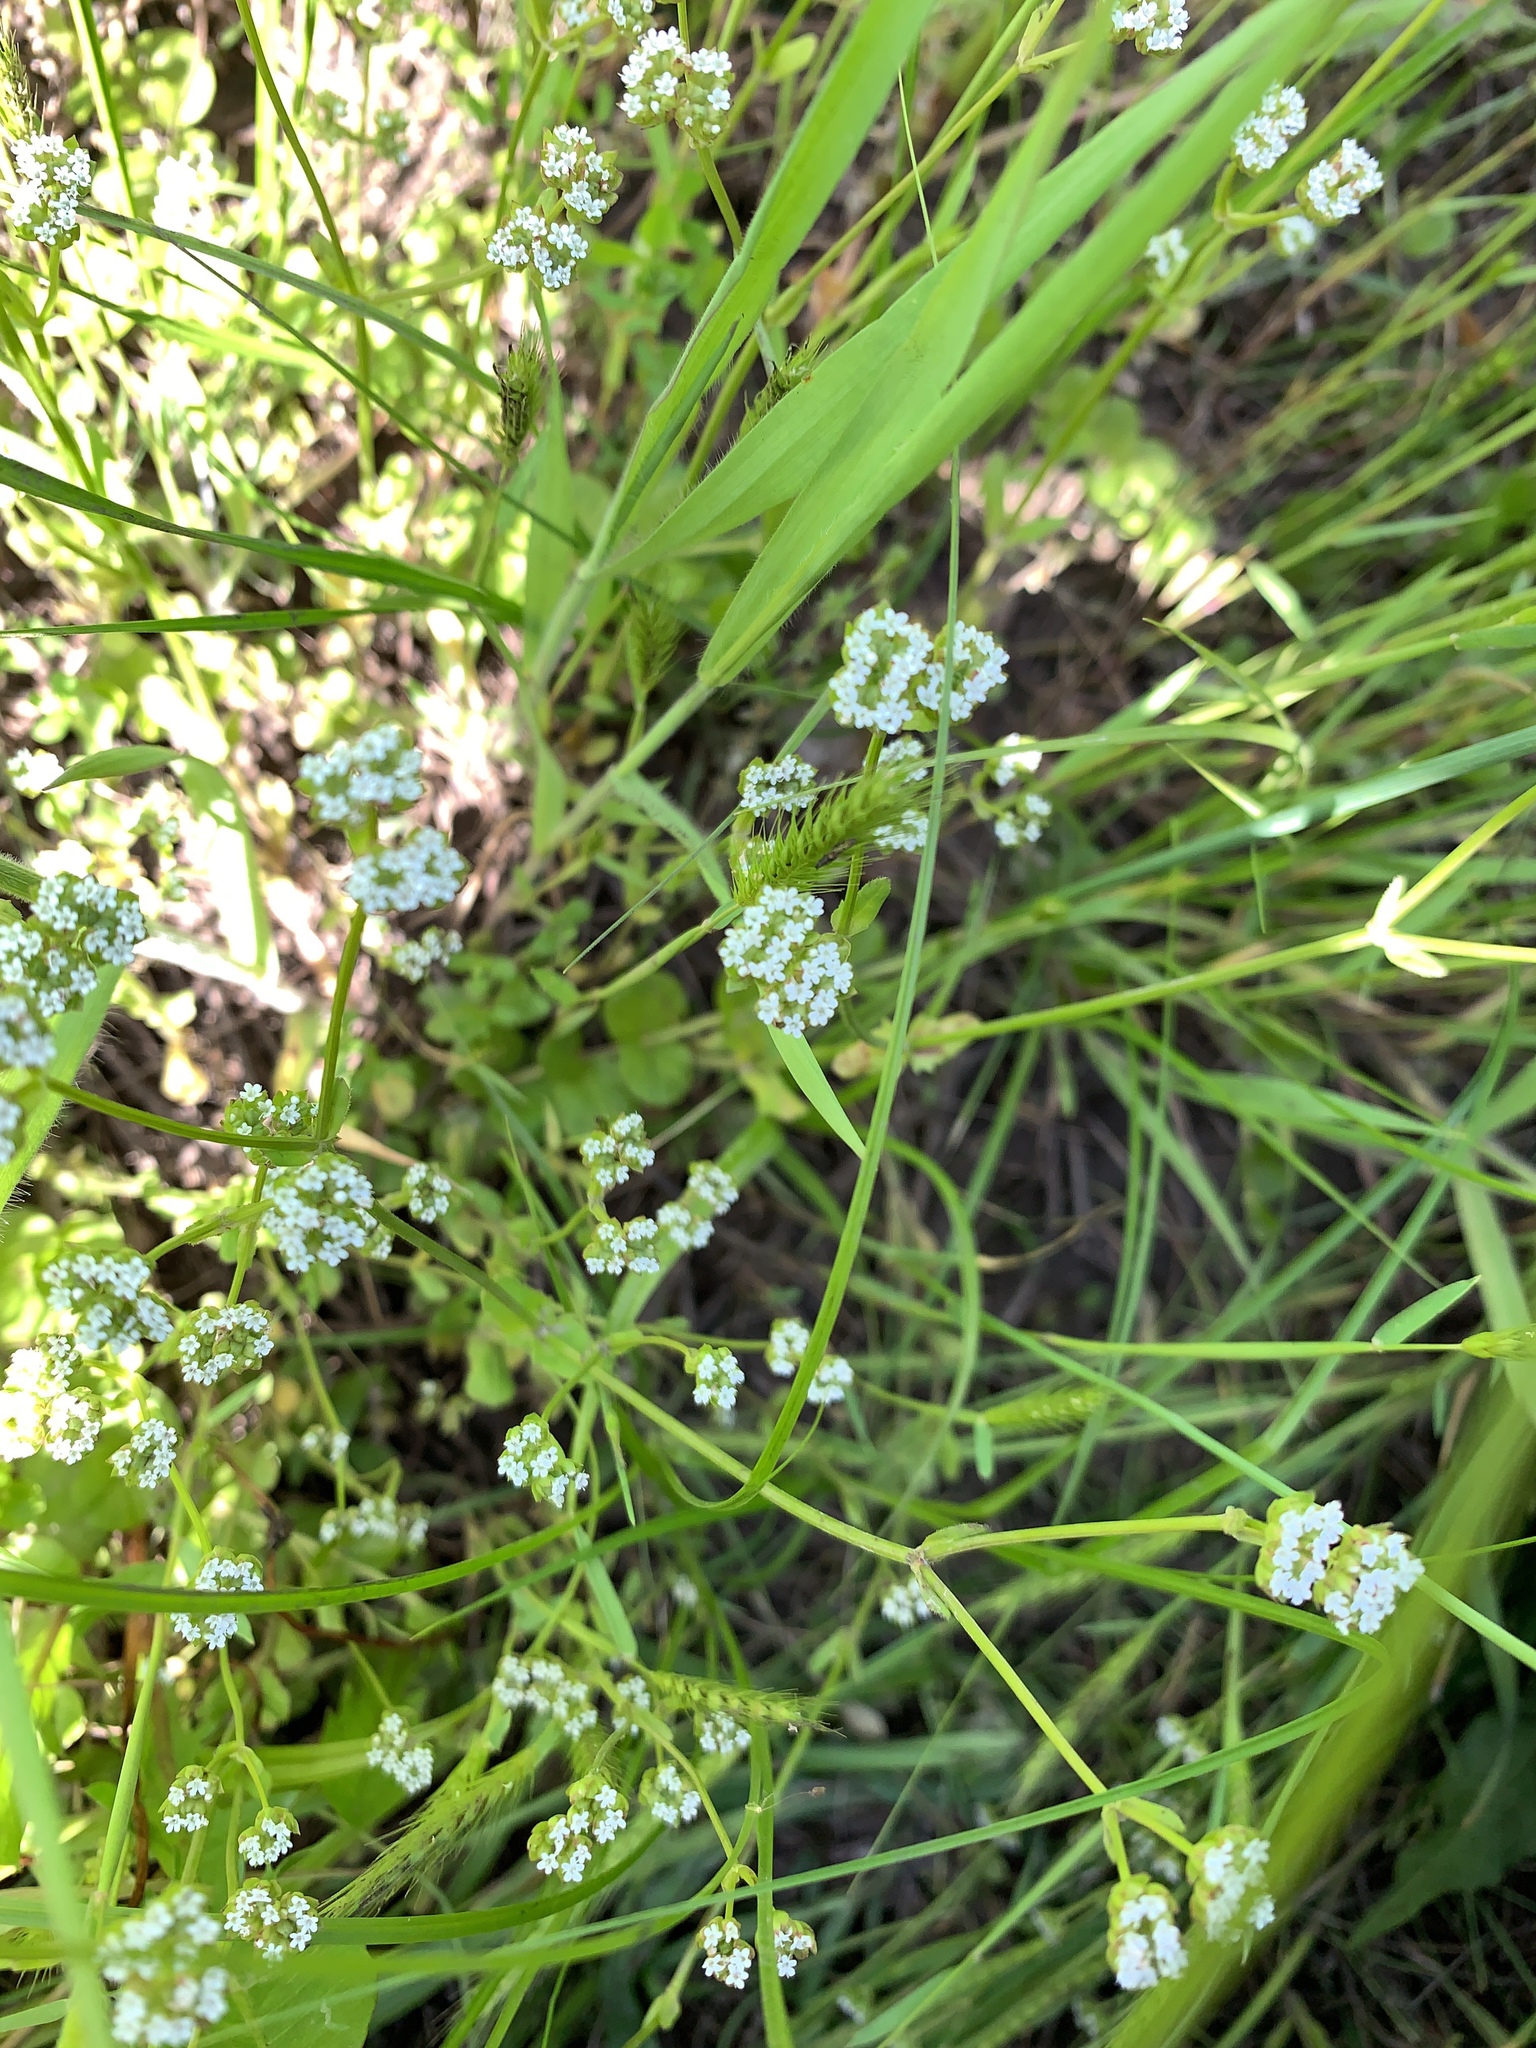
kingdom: Plantae
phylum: Tracheophyta
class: Magnoliopsida
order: Dipsacales
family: Caprifoliaceae
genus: Valerianella
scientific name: Valerianella radiata
